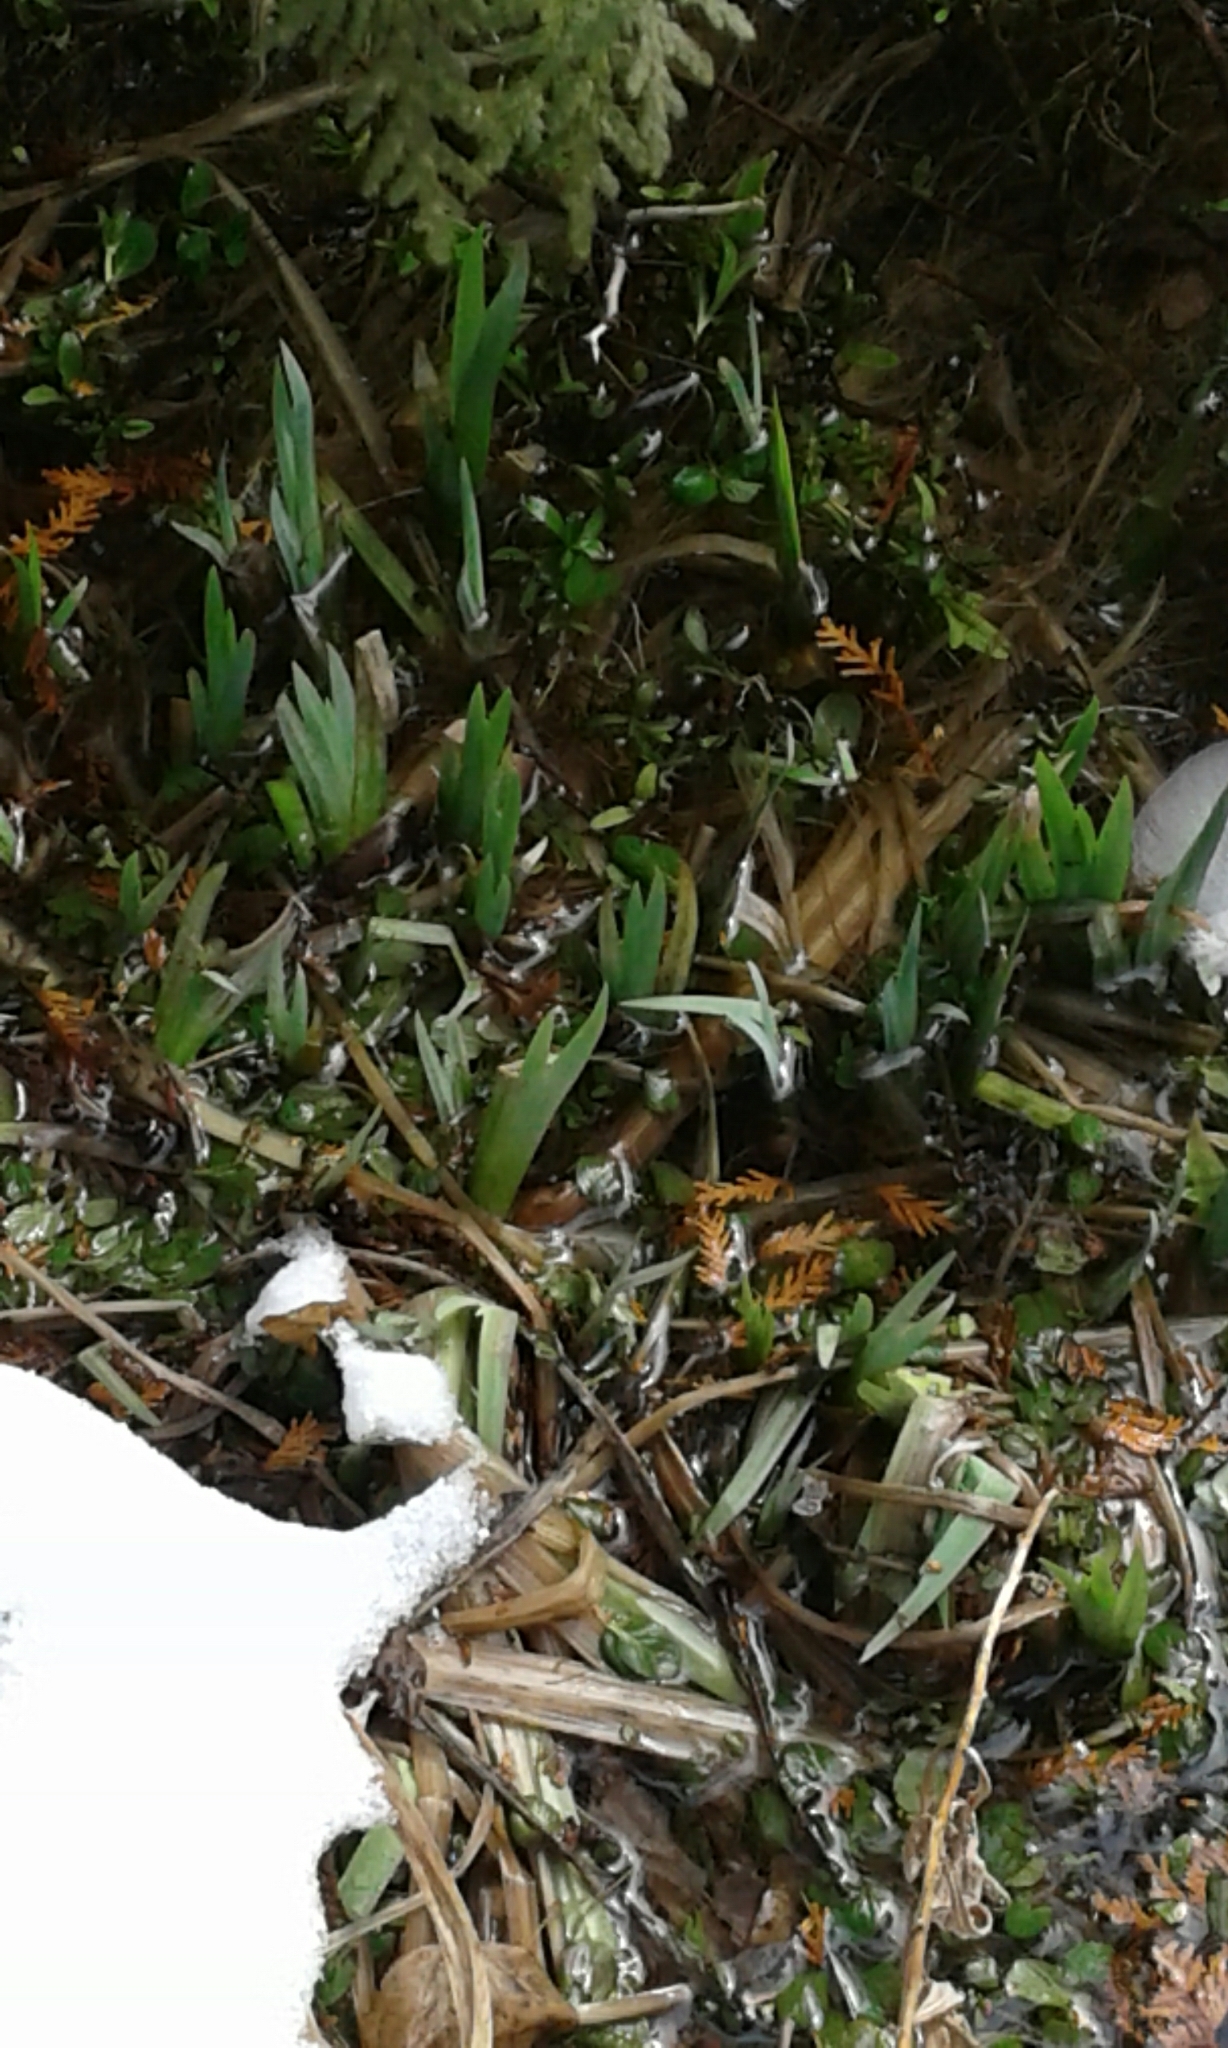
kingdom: Plantae
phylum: Tracheophyta
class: Liliopsida
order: Asparagales
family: Iridaceae
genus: Iris
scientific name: Iris pseudacorus
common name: Yellow flag
